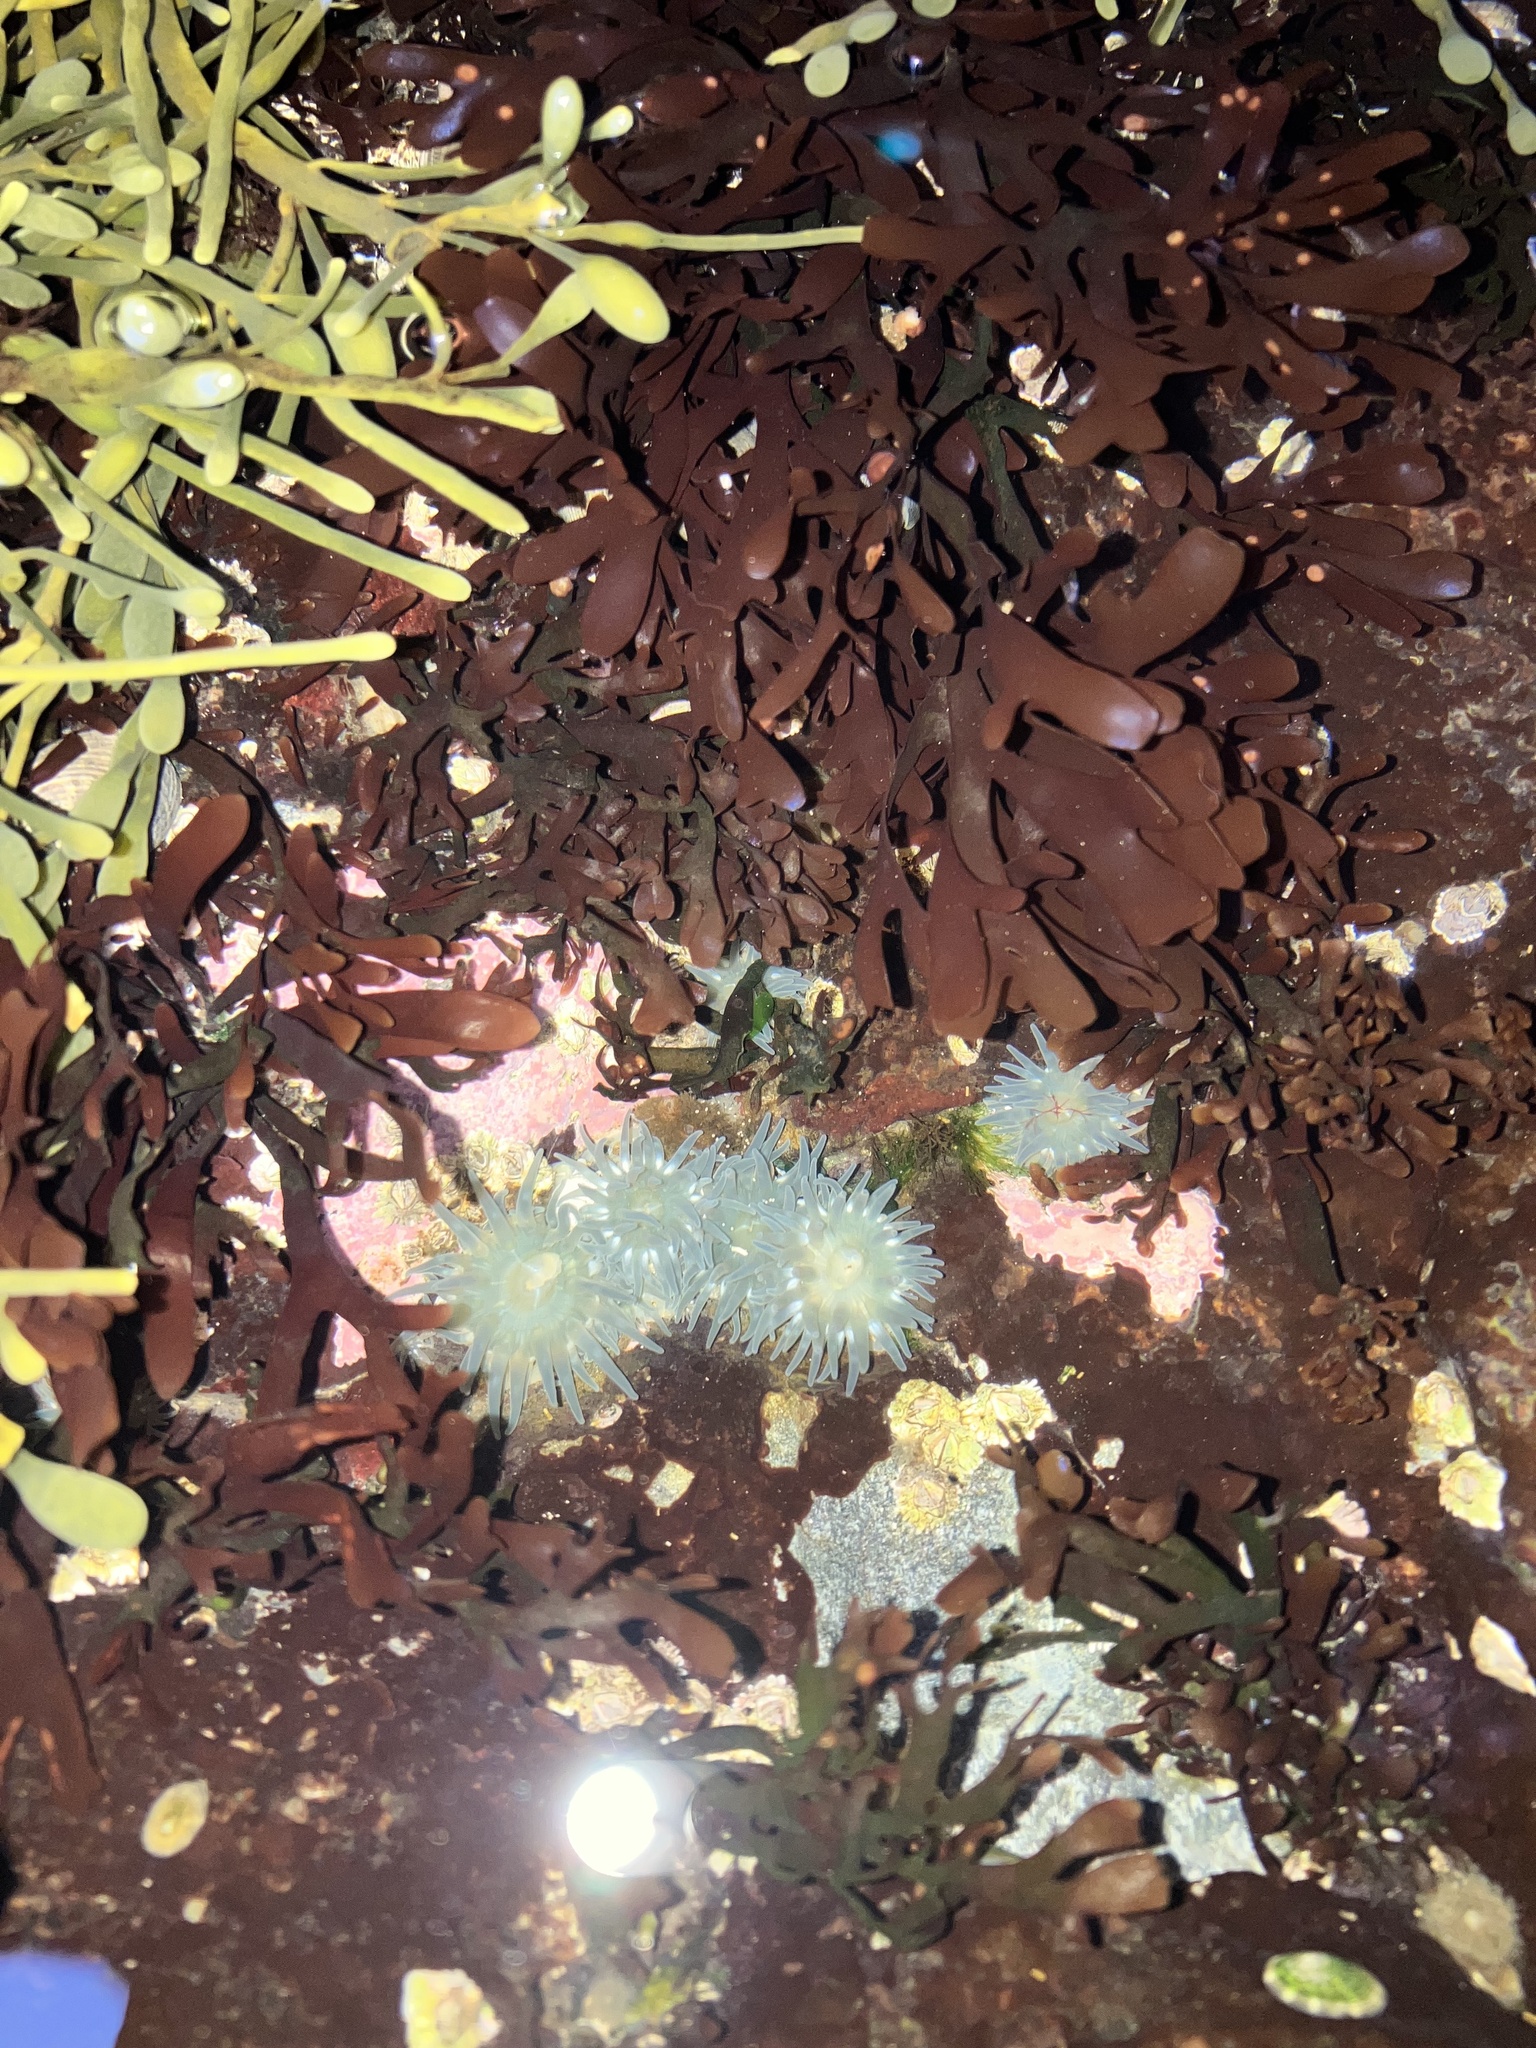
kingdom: Animalia
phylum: Cnidaria
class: Anthozoa
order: Actiniaria
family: Actiniidae
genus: Aulactinia
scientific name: Aulactinia stella
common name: Silver-spotted sea anemone
